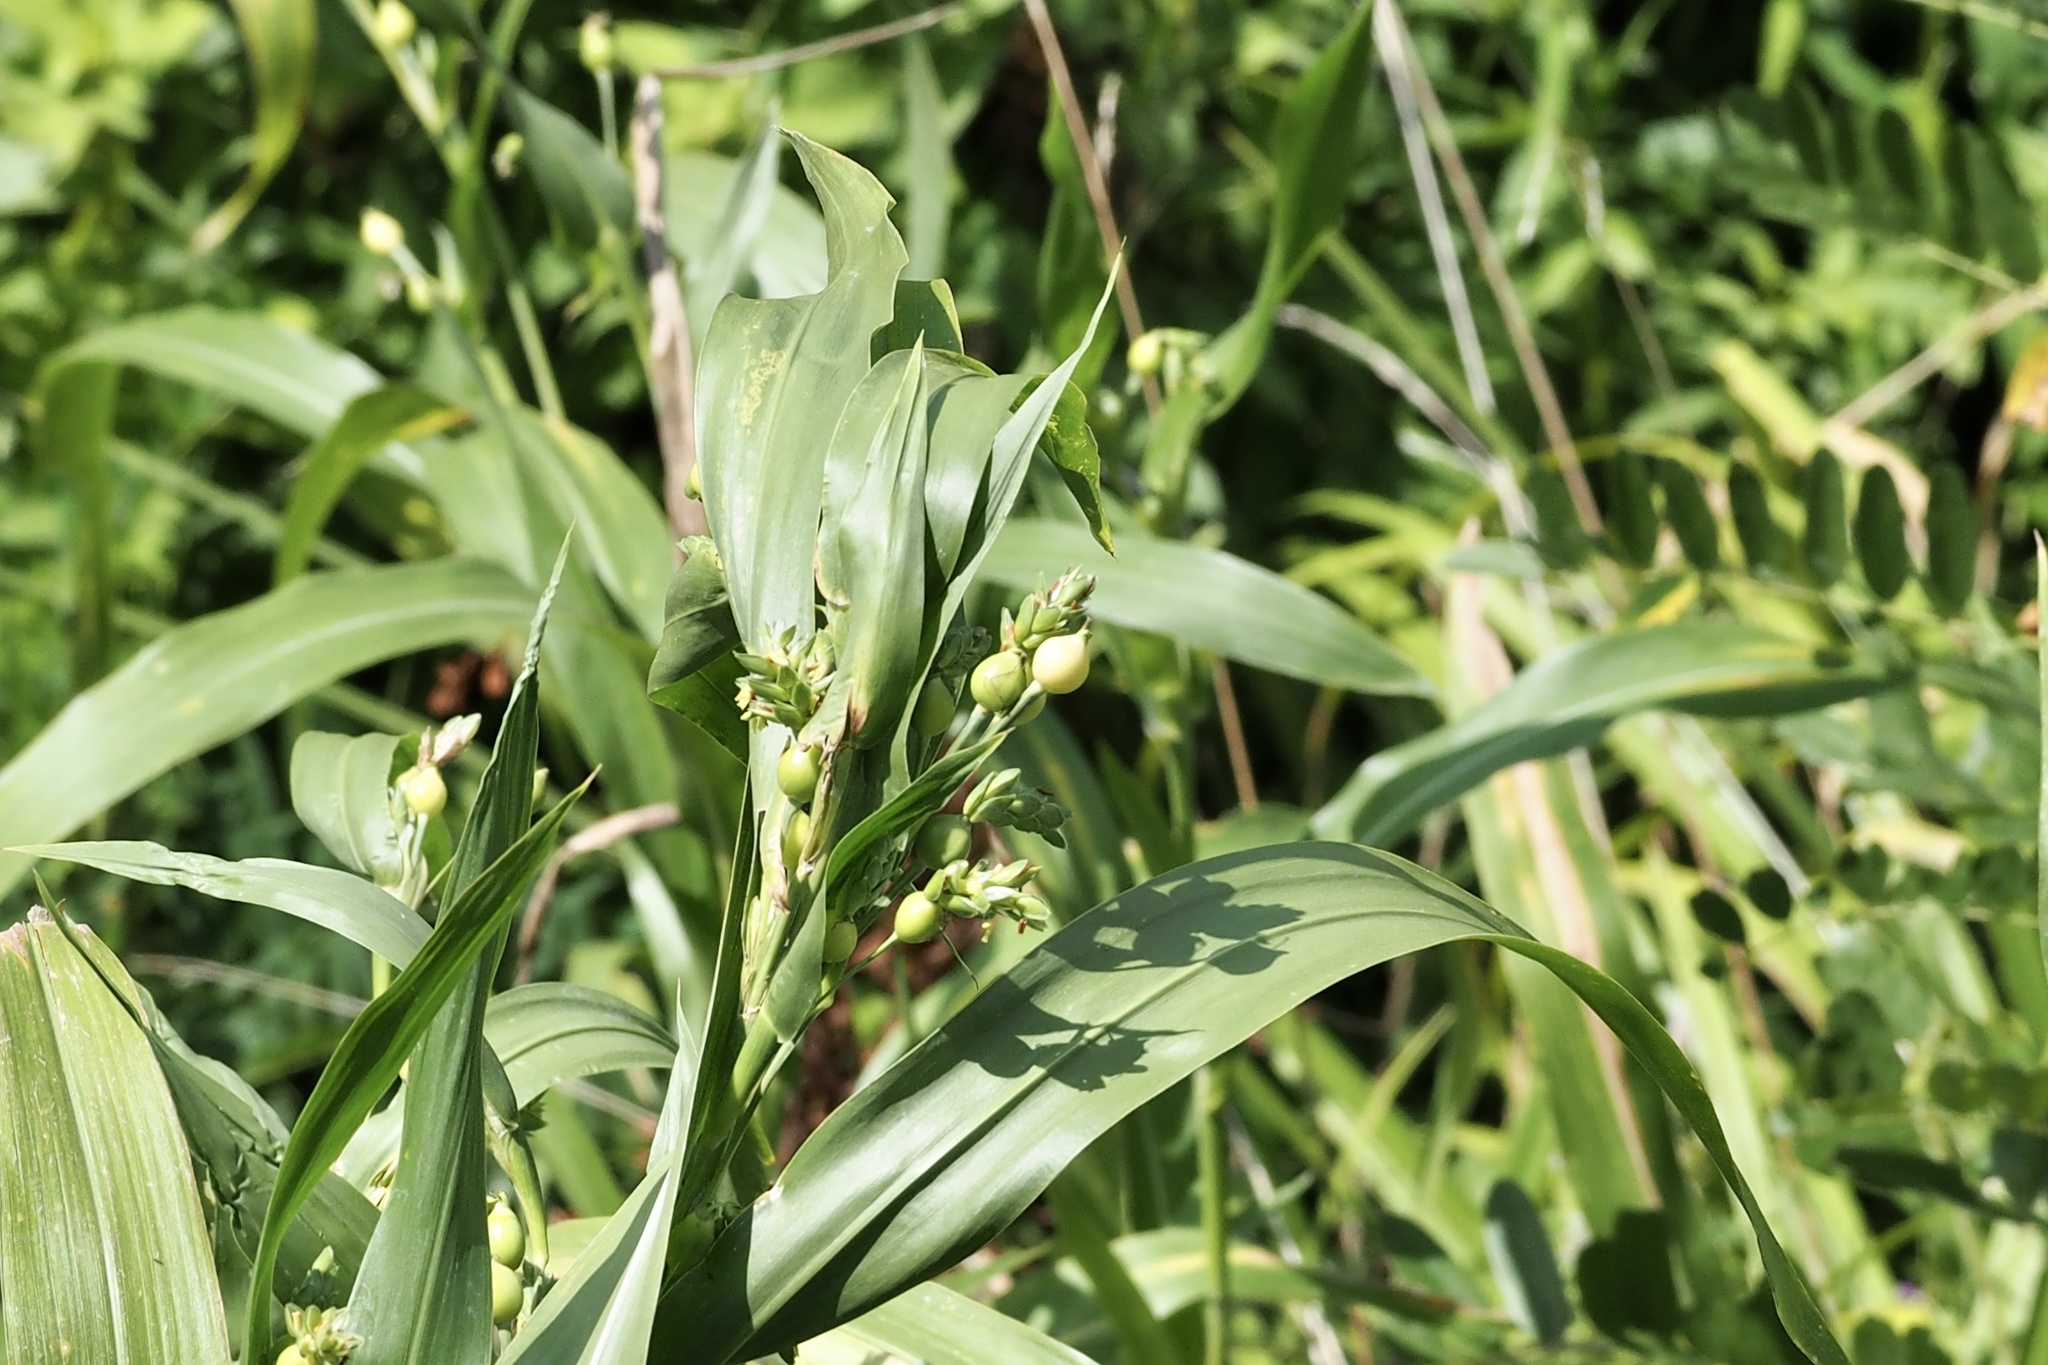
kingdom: Plantae
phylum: Tracheophyta
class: Liliopsida
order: Poales
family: Poaceae
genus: Coix
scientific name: Coix lacryma-jobi
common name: Job's tears
